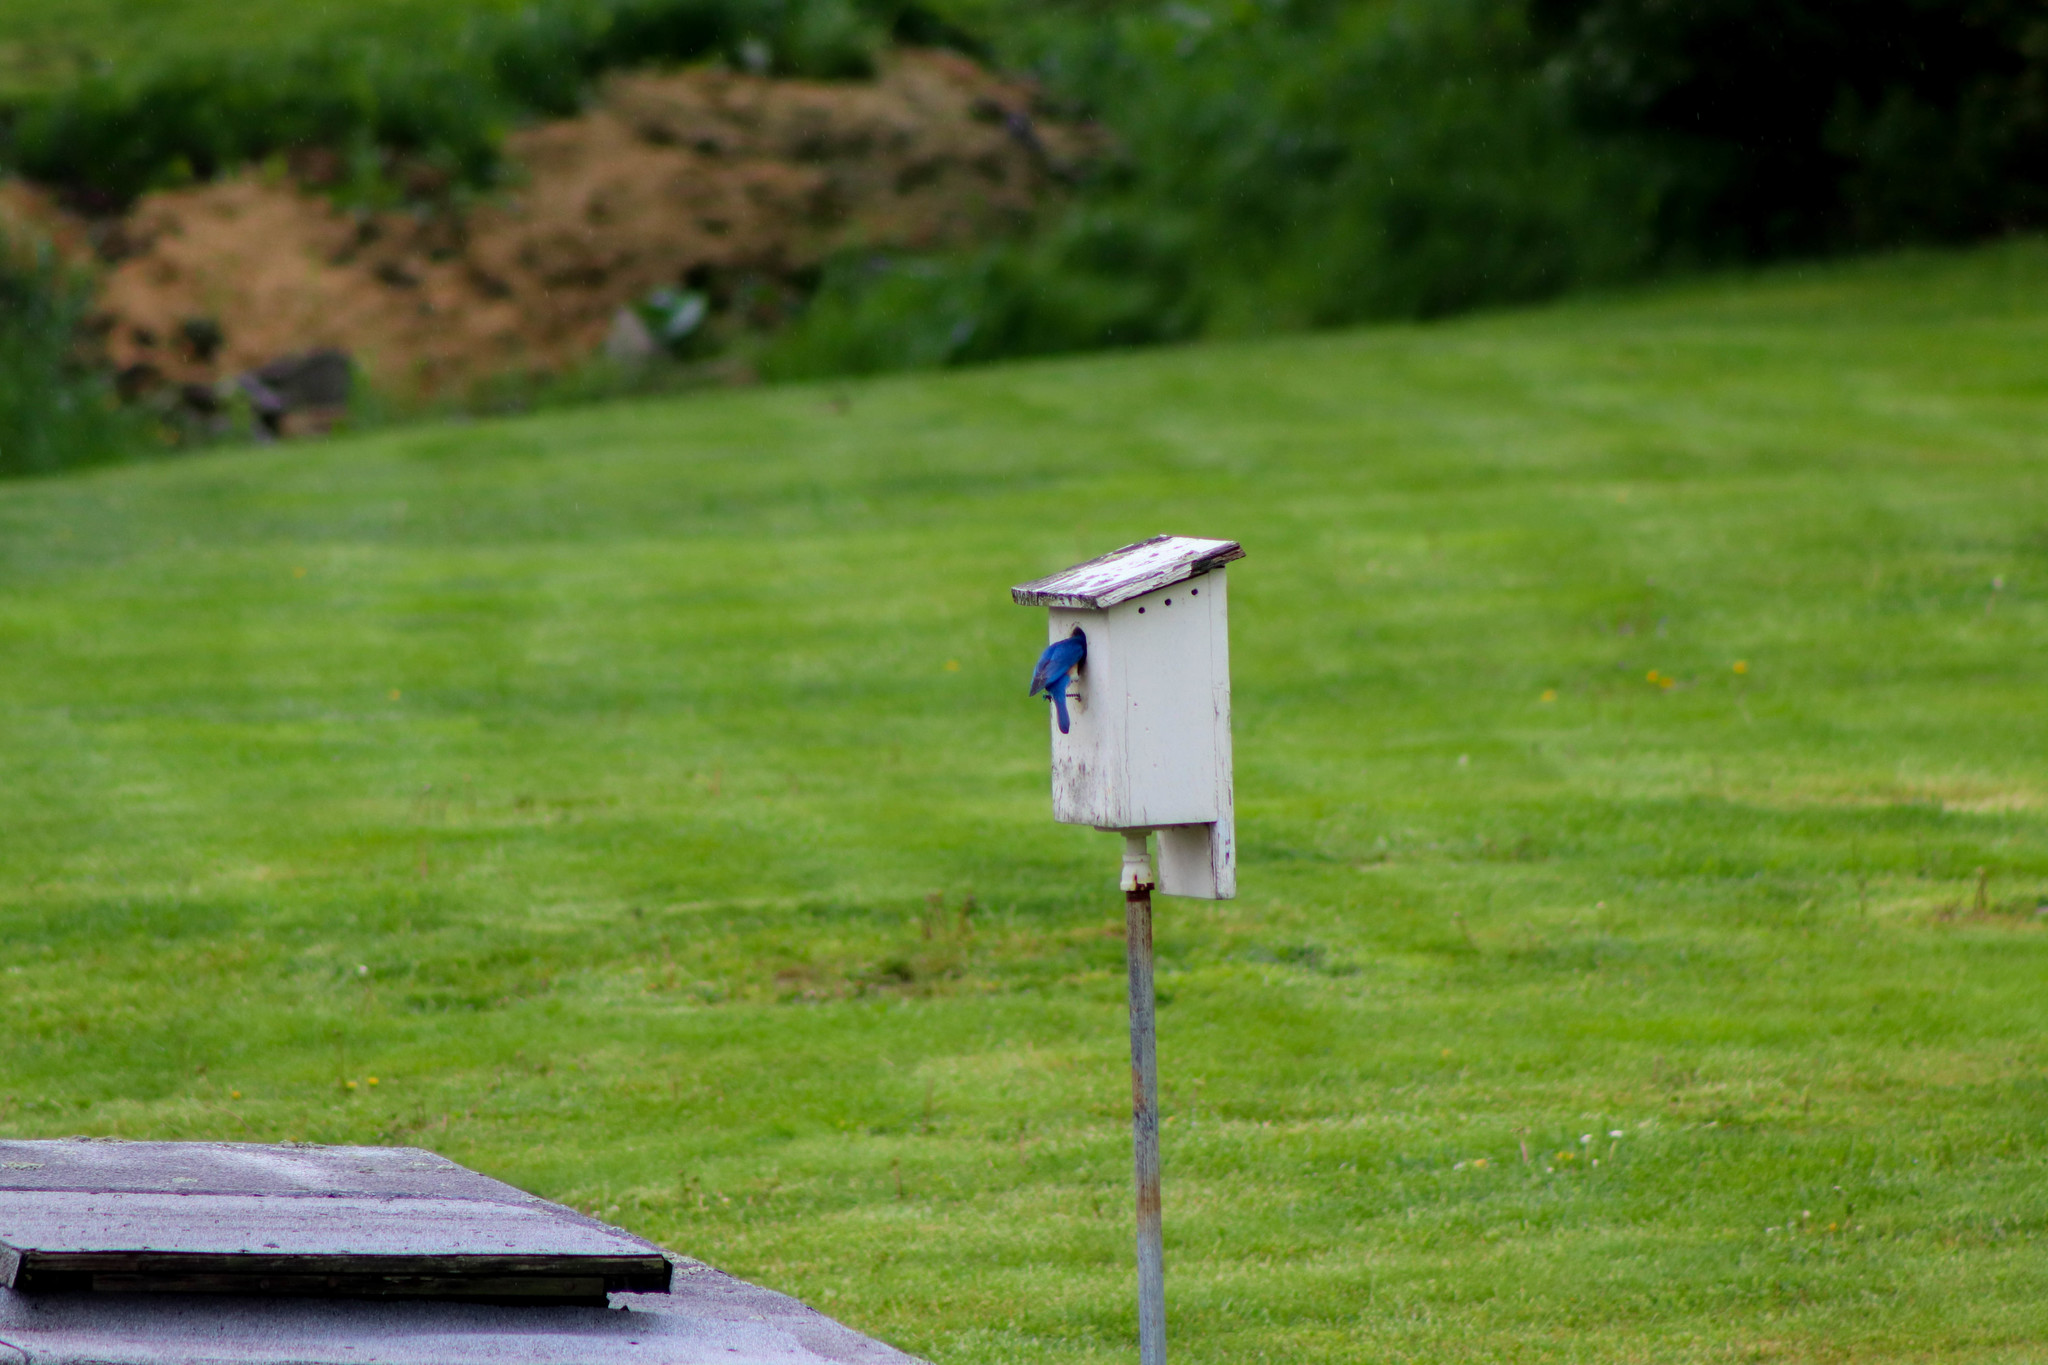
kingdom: Animalia
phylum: Chordata
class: Aves
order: Passeriformes
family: Turdidae
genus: Sialia
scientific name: Sialia sialis
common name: Eastern bluebird
